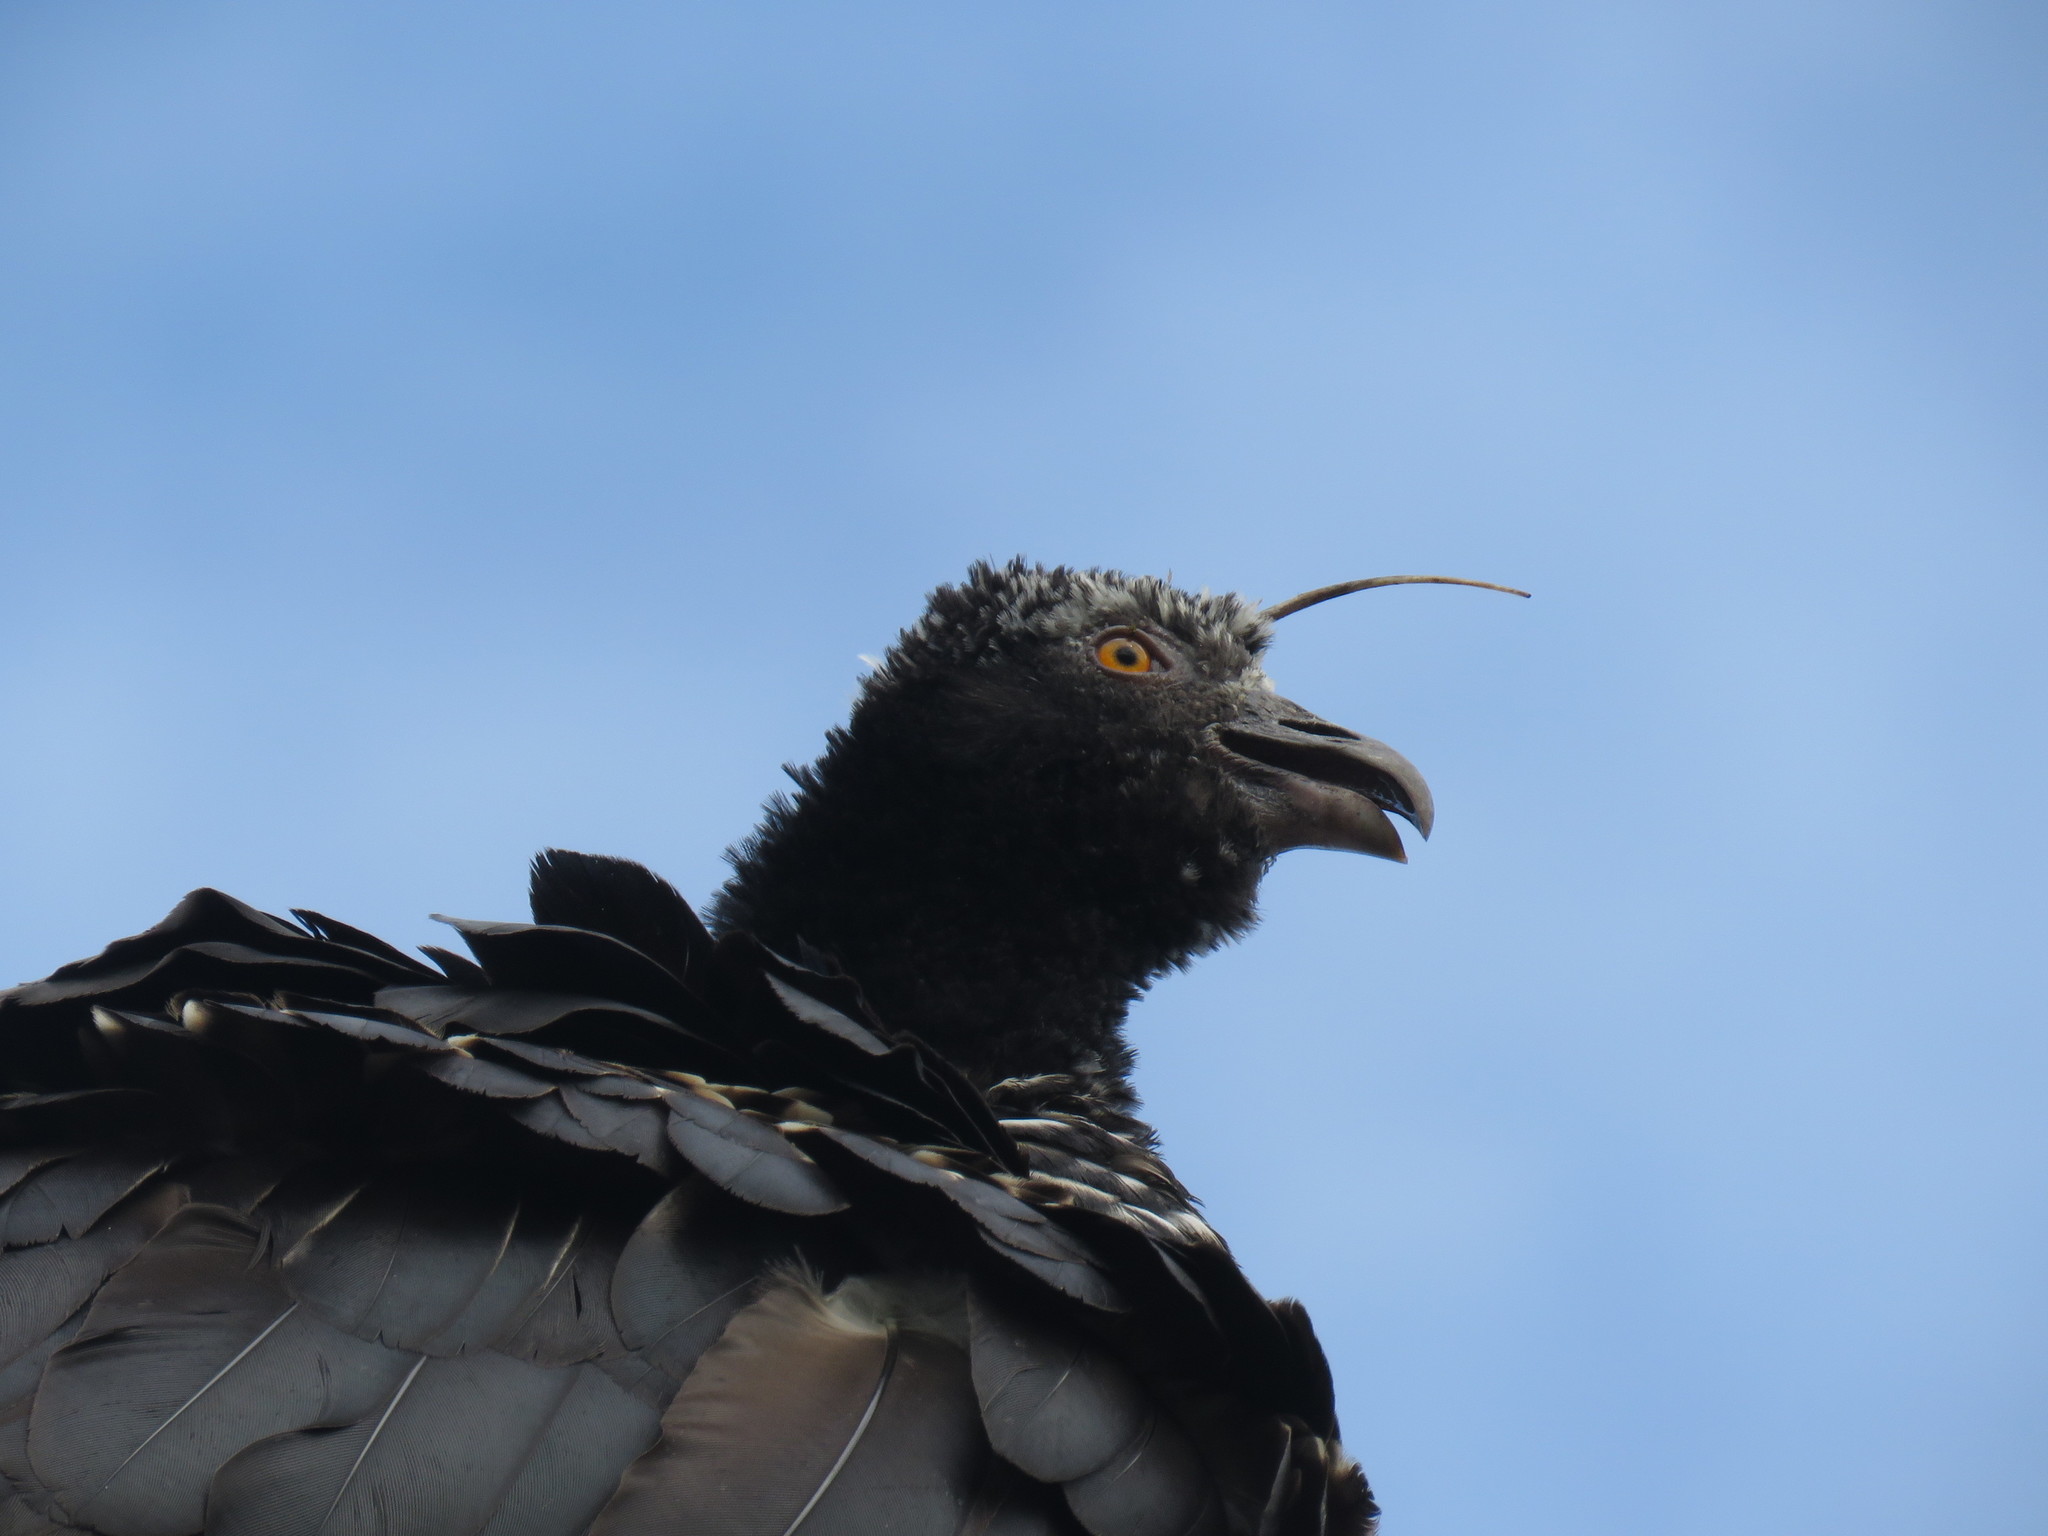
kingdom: Animalia
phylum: Chordata
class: Aves
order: Anseriformes
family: Anhimidae
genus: Anhima
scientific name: Anhima cornuta
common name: Horned screamer
